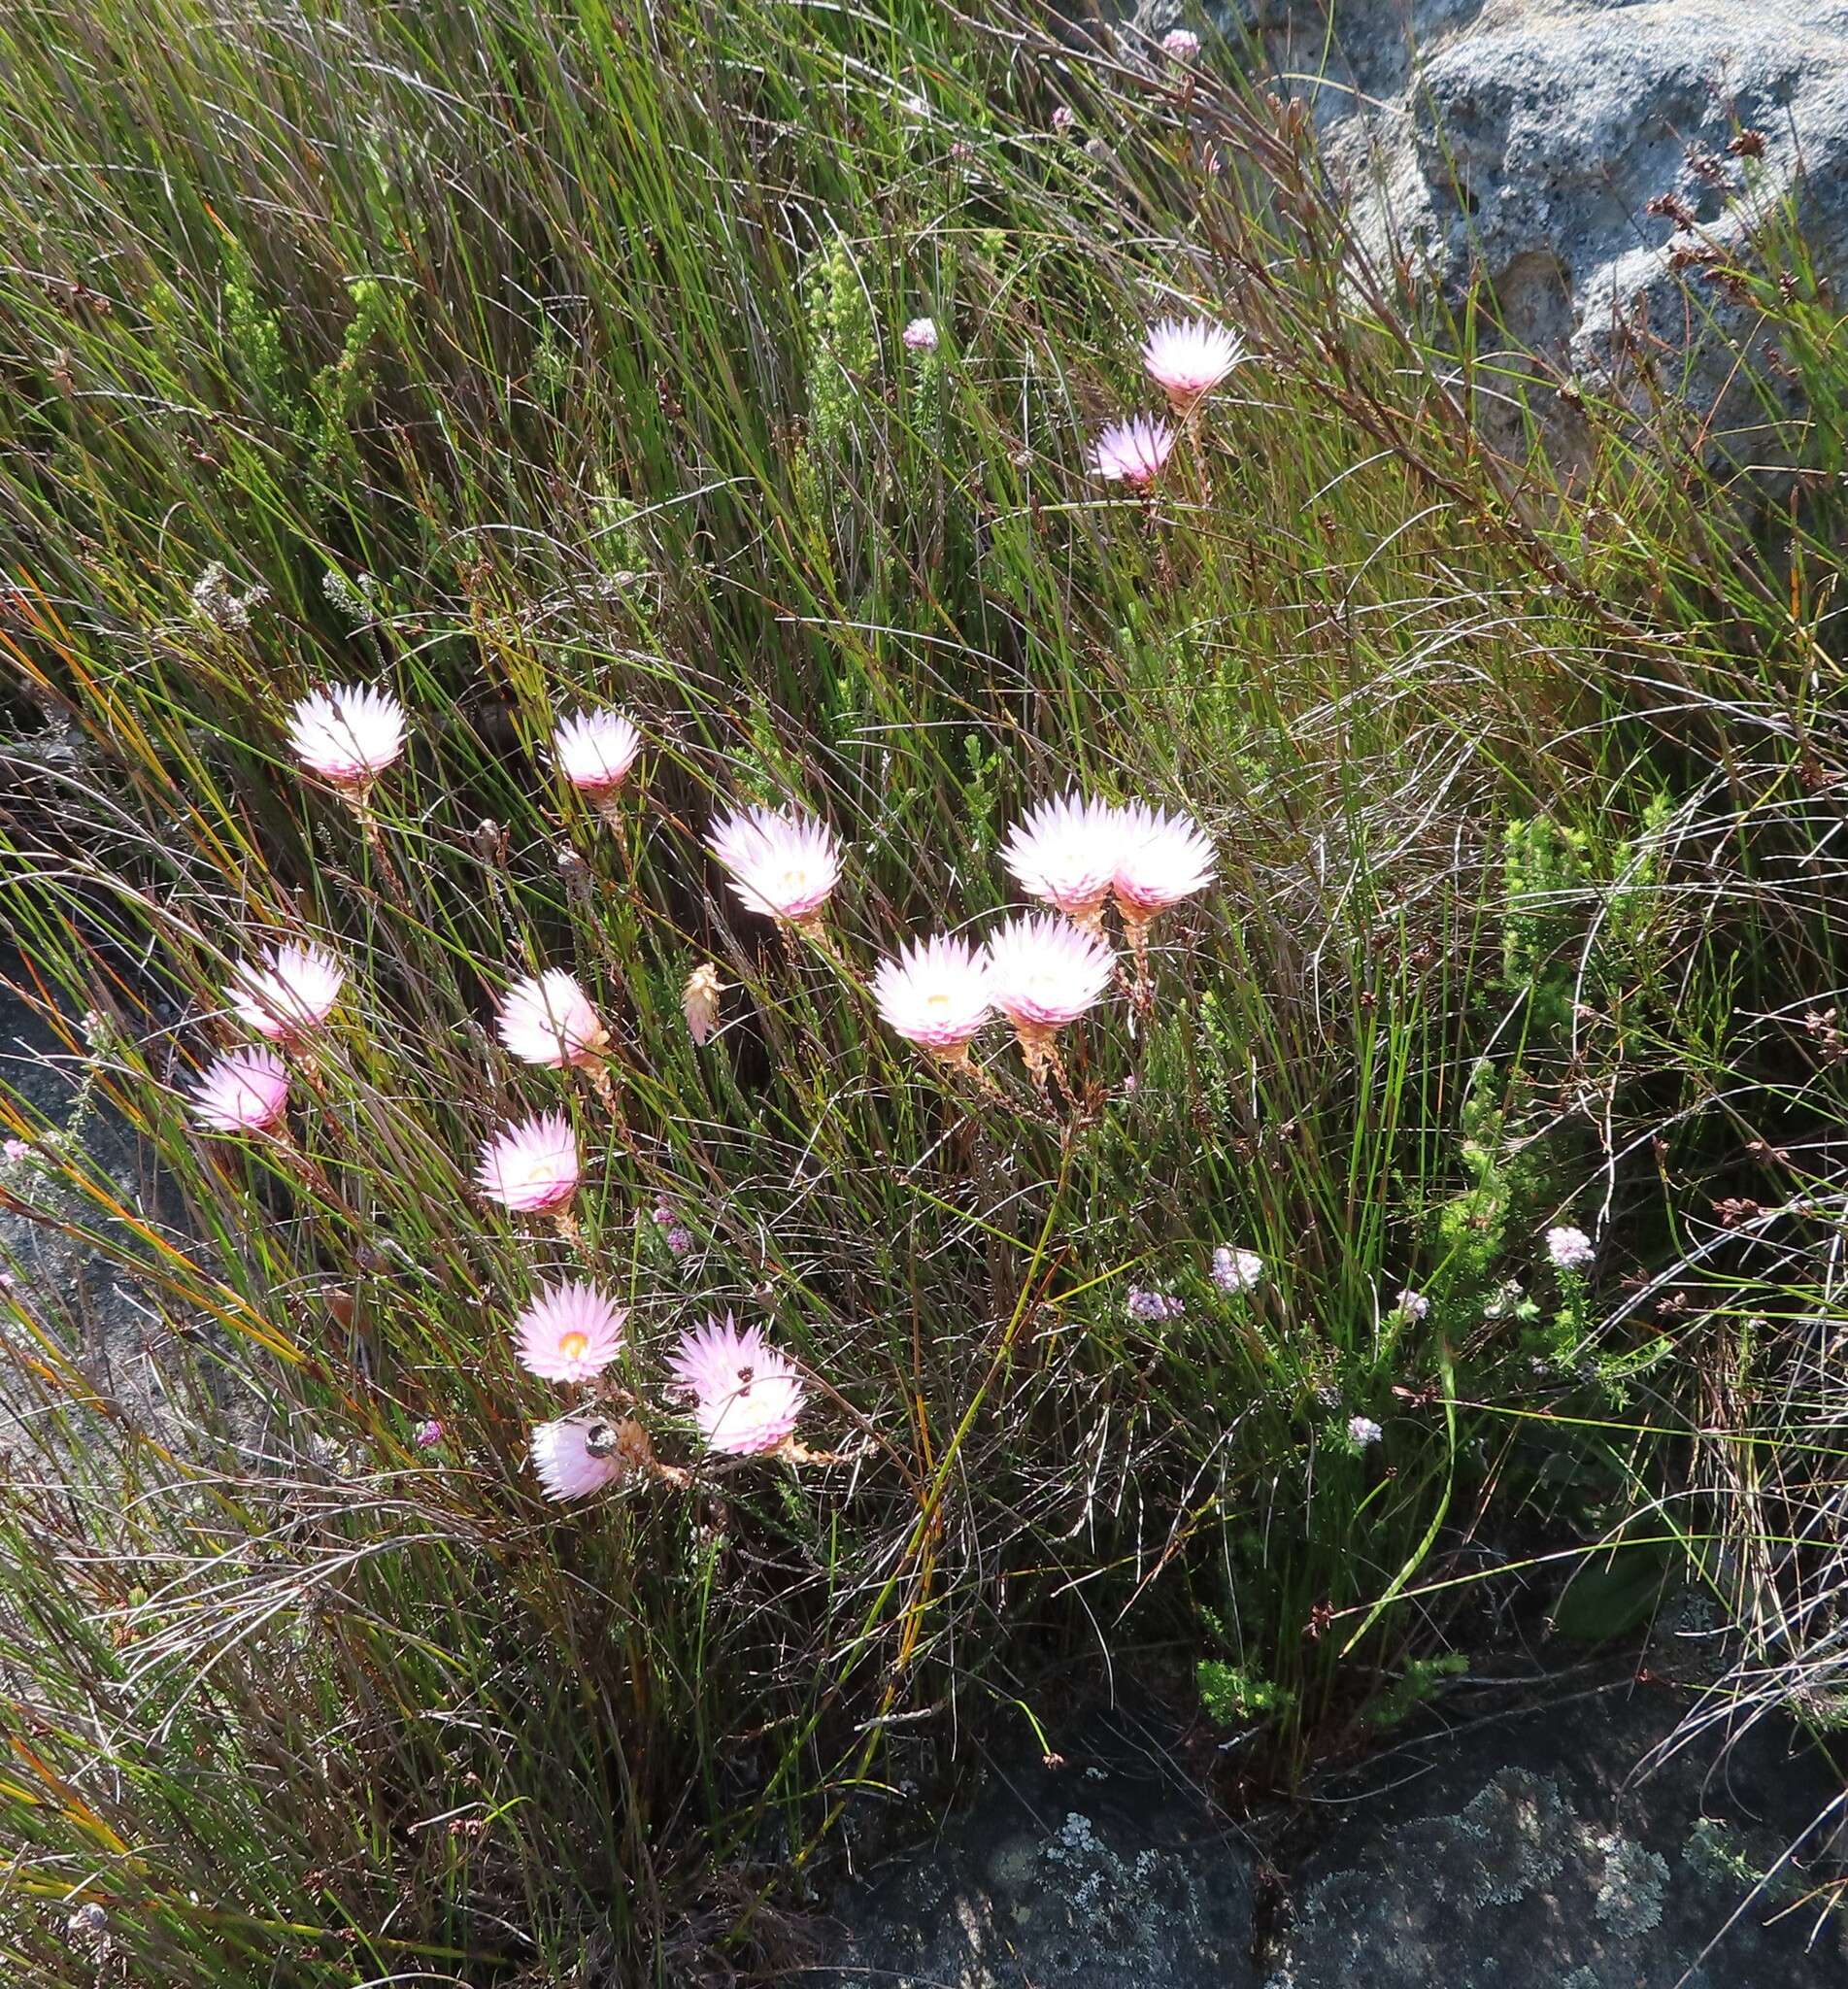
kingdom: Plantae
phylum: Tracheophyta
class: Magnoliopsida
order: Asterales
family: Asteraceae
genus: Edmondia
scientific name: Edmondia pinifolia
